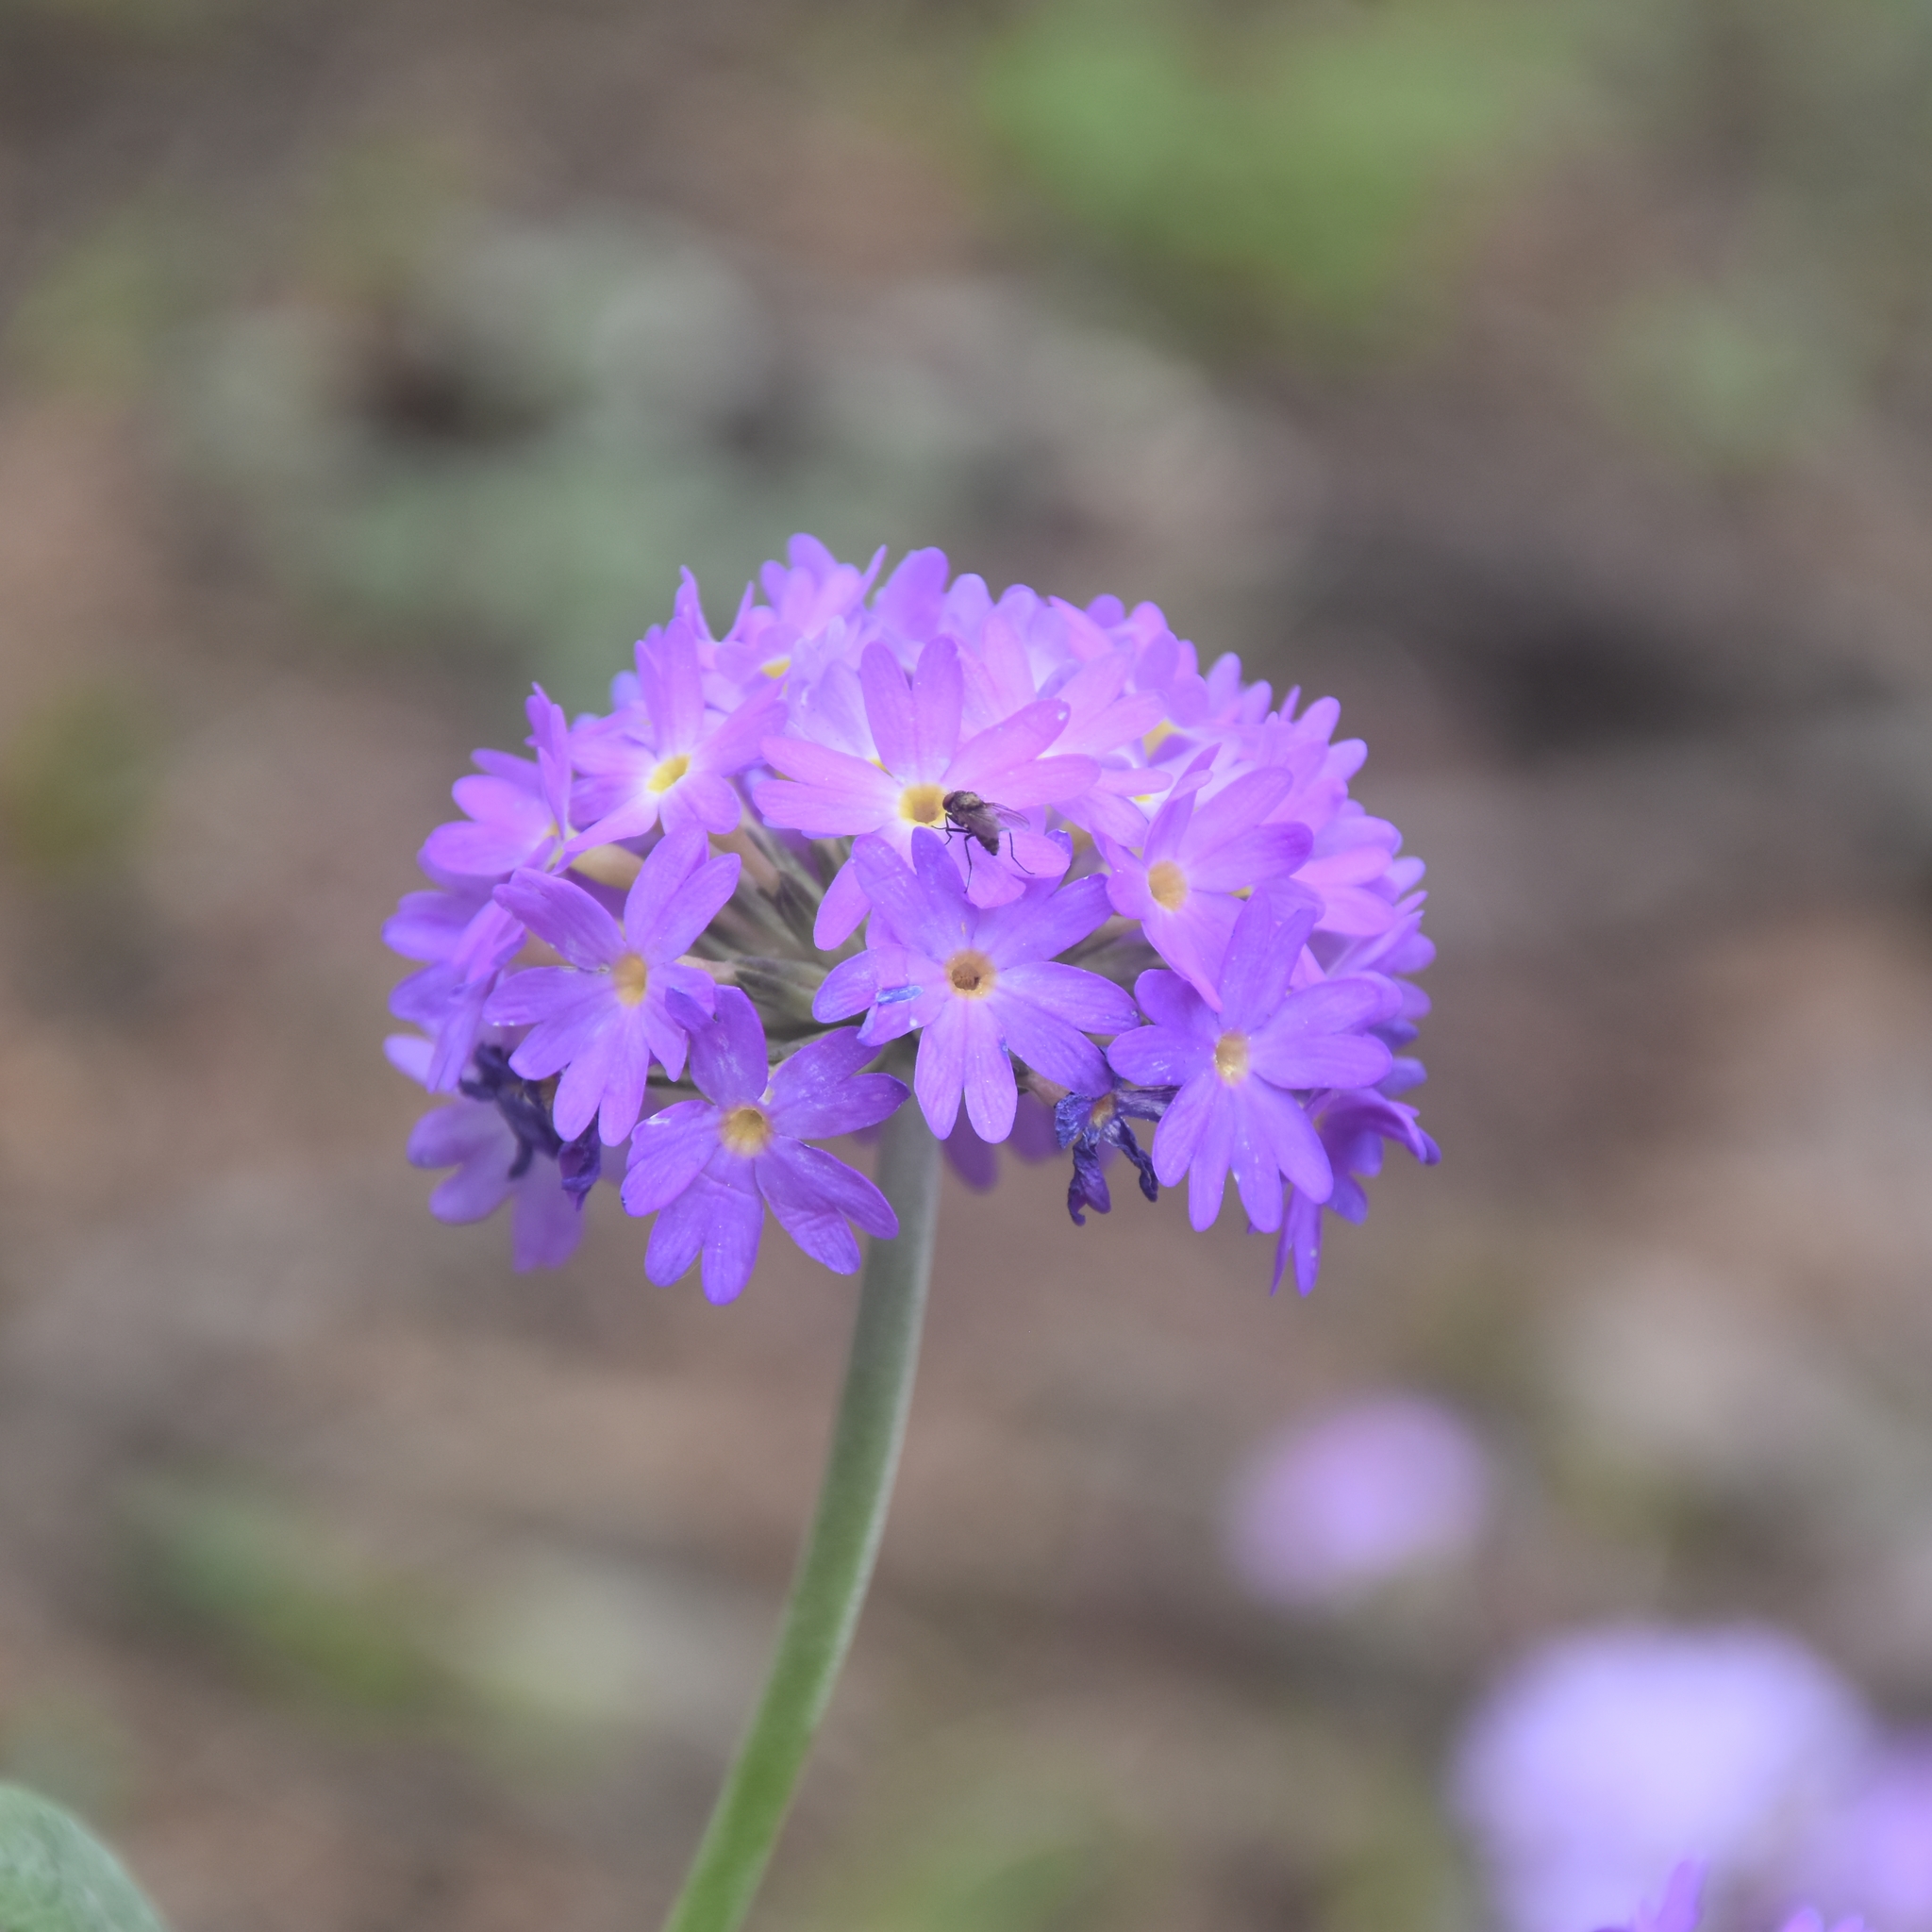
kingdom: Plantae
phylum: Tracheophyta
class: Magnoliopsida
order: Ericales
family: Primulaceae
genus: Primula
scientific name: Primula denticulata
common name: Drumstick primula
